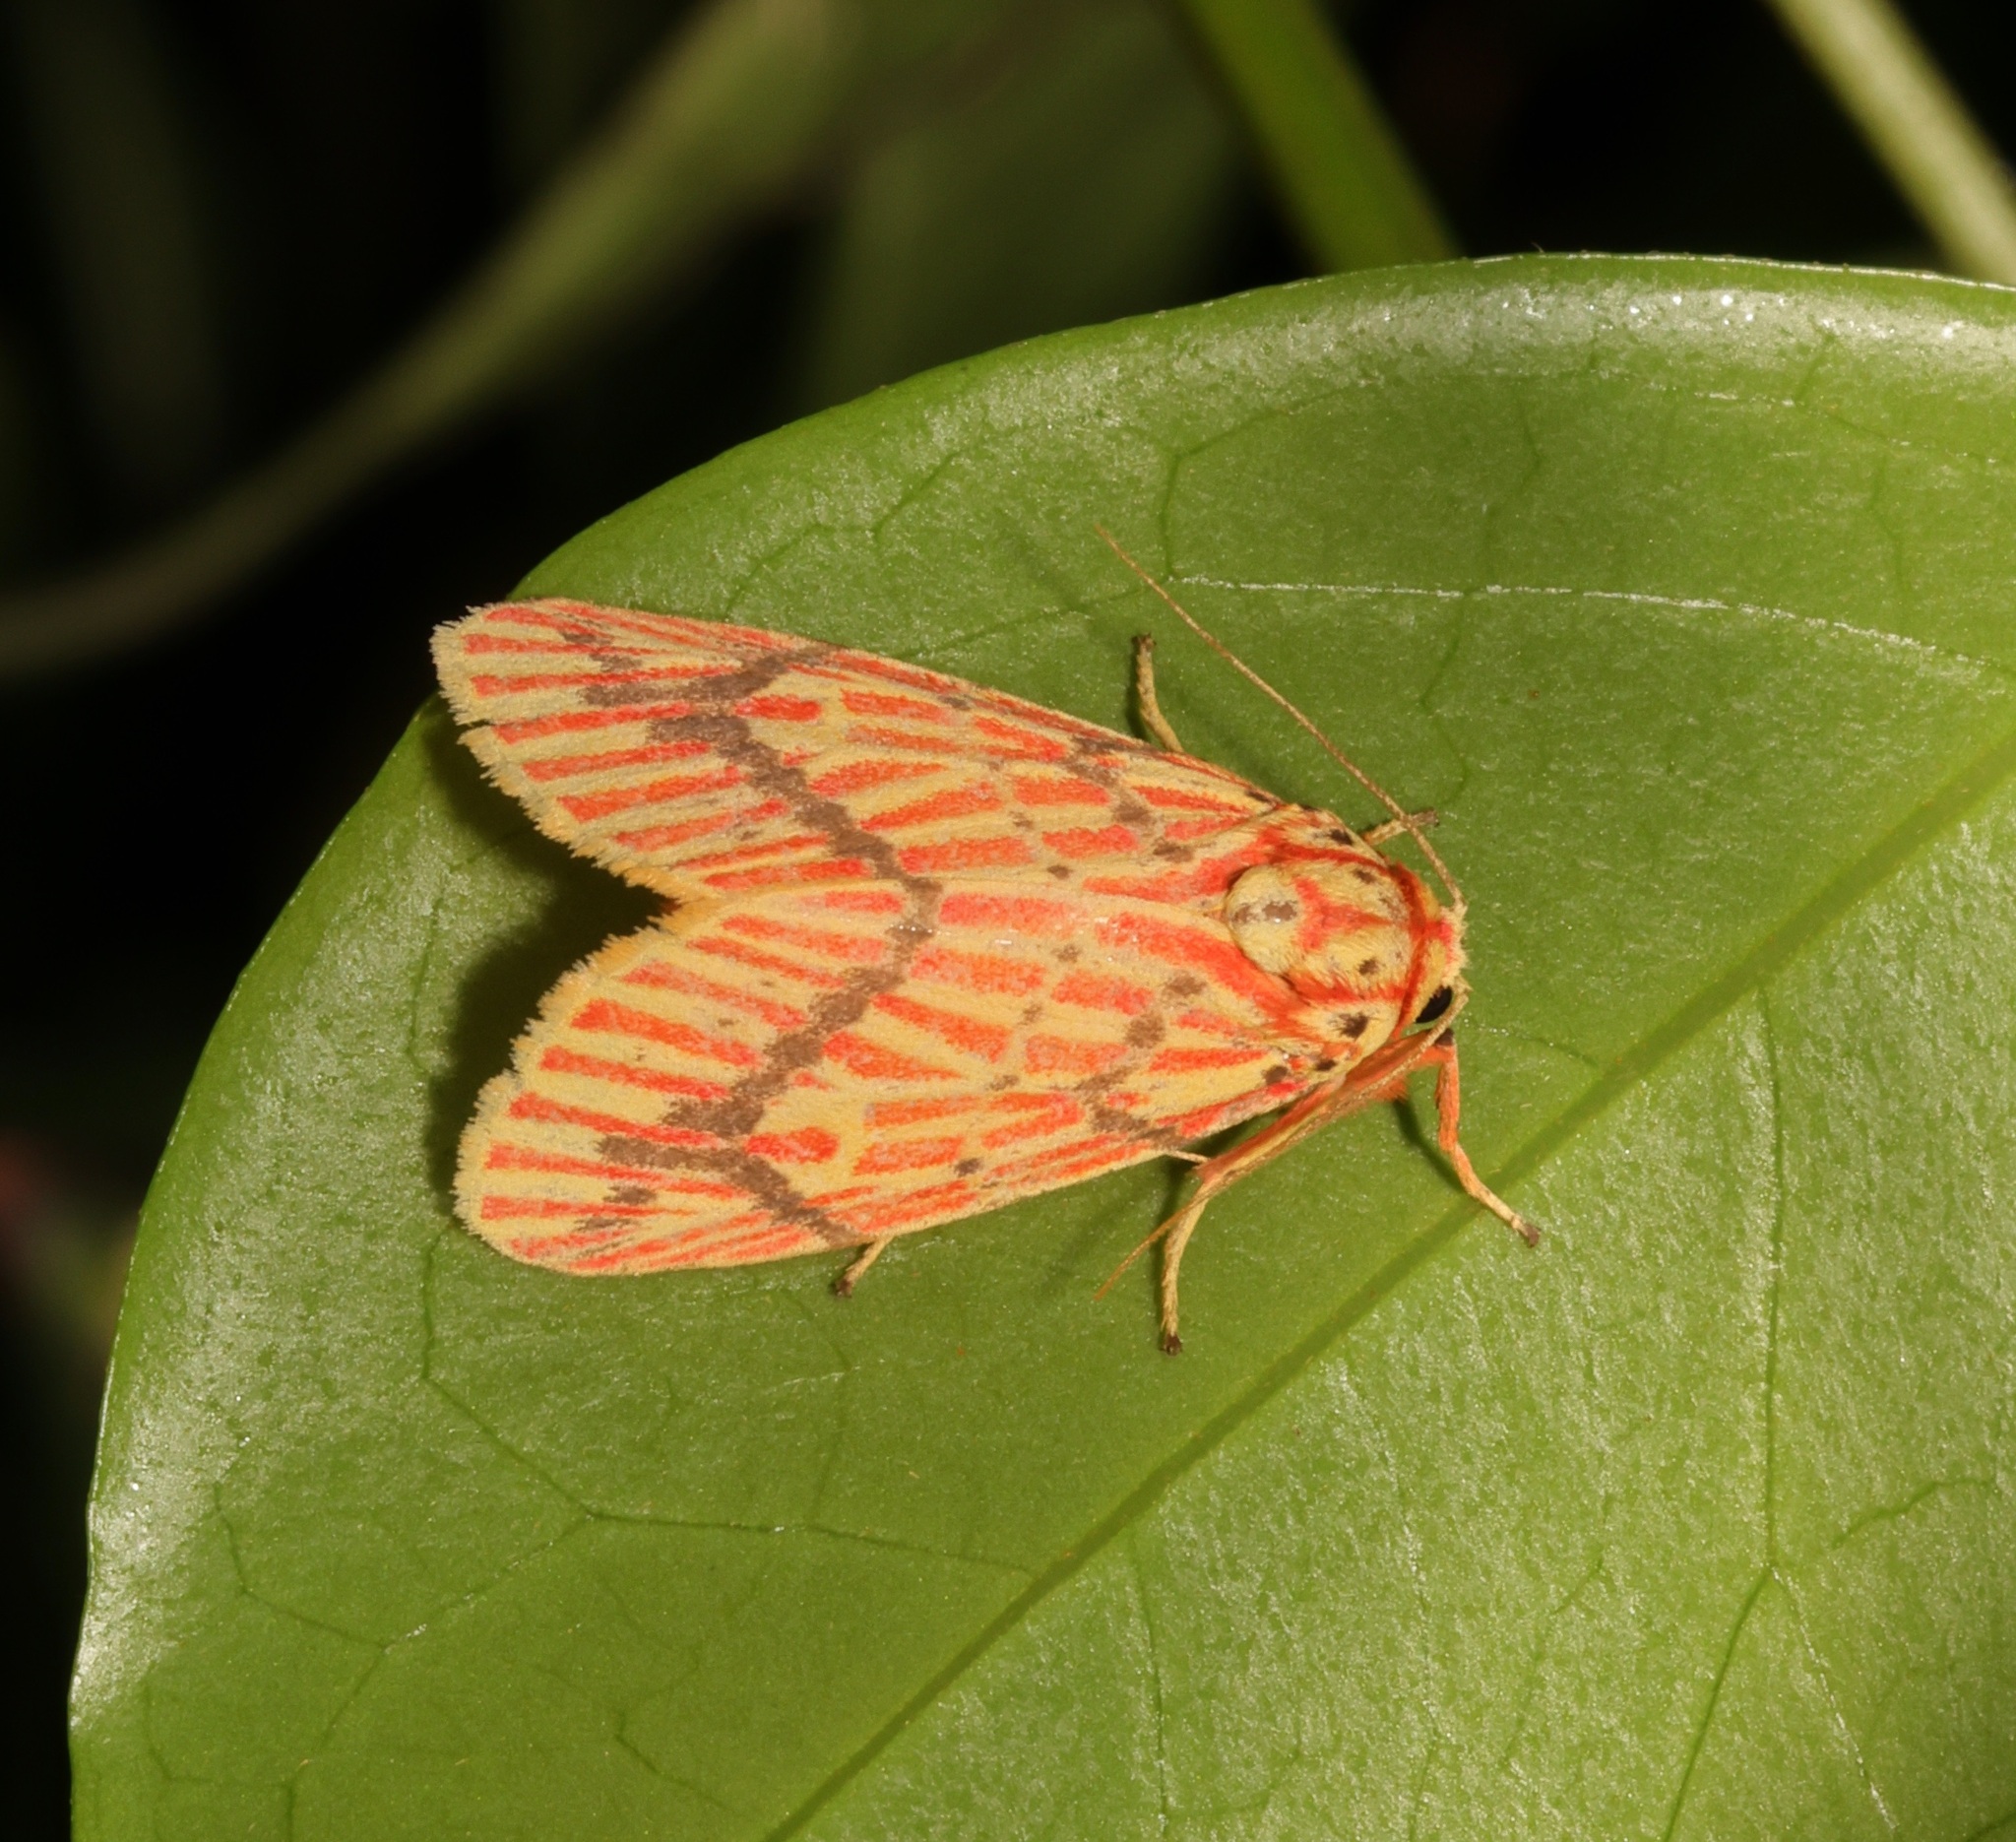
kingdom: Animalia
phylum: Arthropoda
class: Insecta
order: Lepidoptera
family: Erebidae
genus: Barsine
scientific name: Barsine striata
